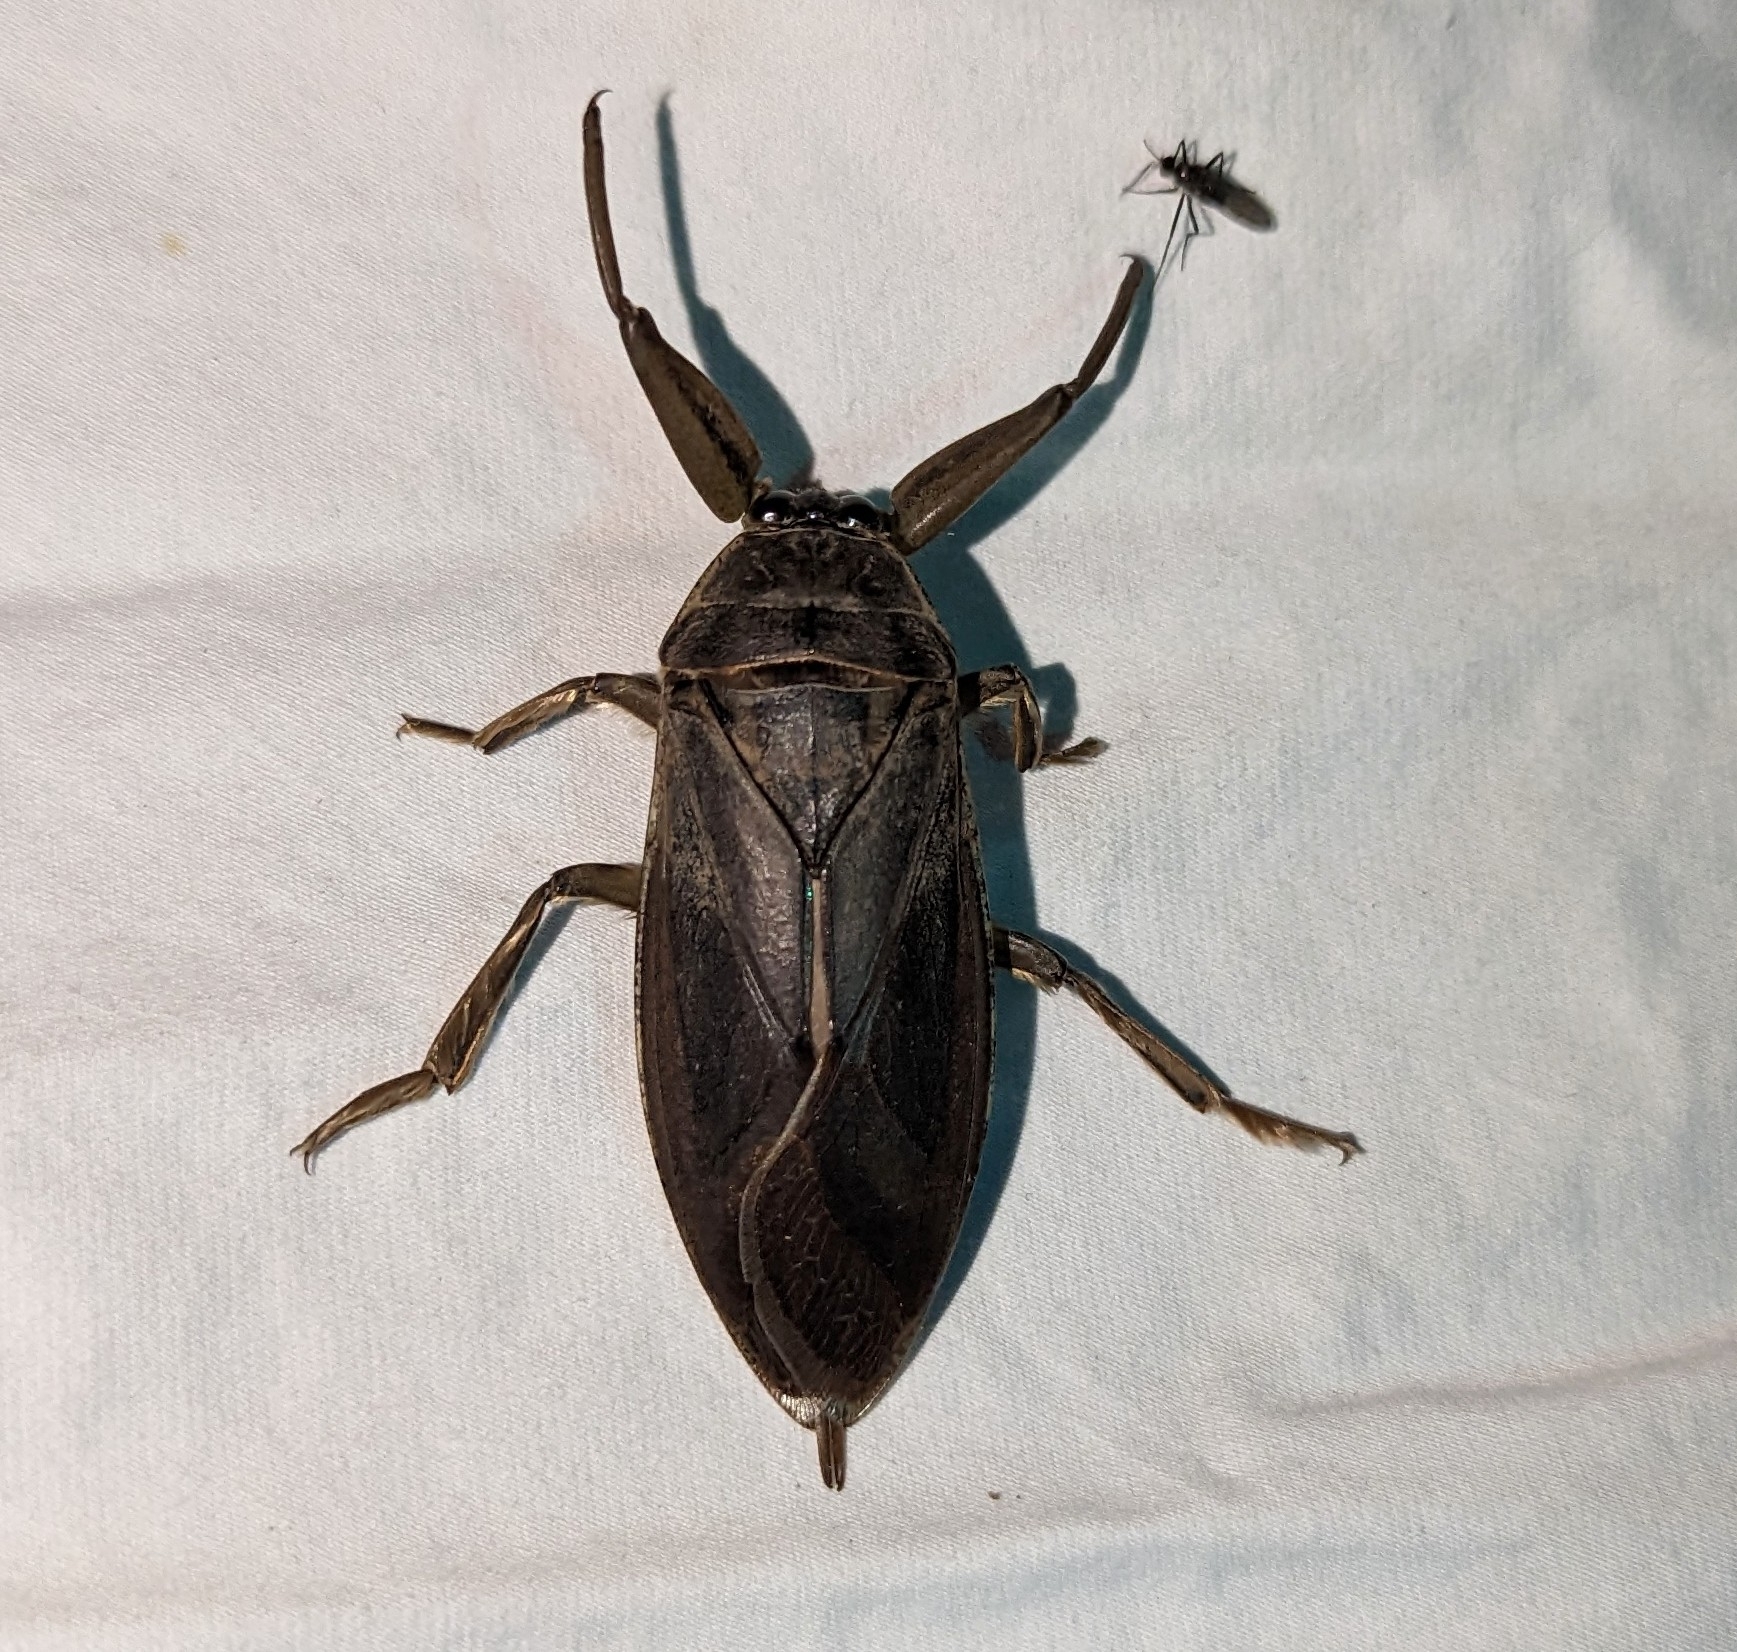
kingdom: Animalia
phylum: Arthropoda
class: Insecta
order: Hemiptera
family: Belostomatidae
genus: Lethocerus
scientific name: Lethocerus americanus
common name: Giant water bug
